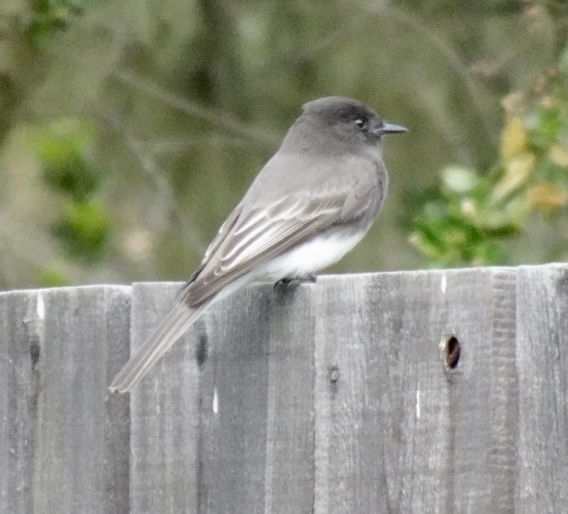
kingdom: Animalia
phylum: Chordata
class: Aves
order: Passeriformes
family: Tyrannidae
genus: Sayornis
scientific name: Sayornis nigricans
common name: Black phoebe
